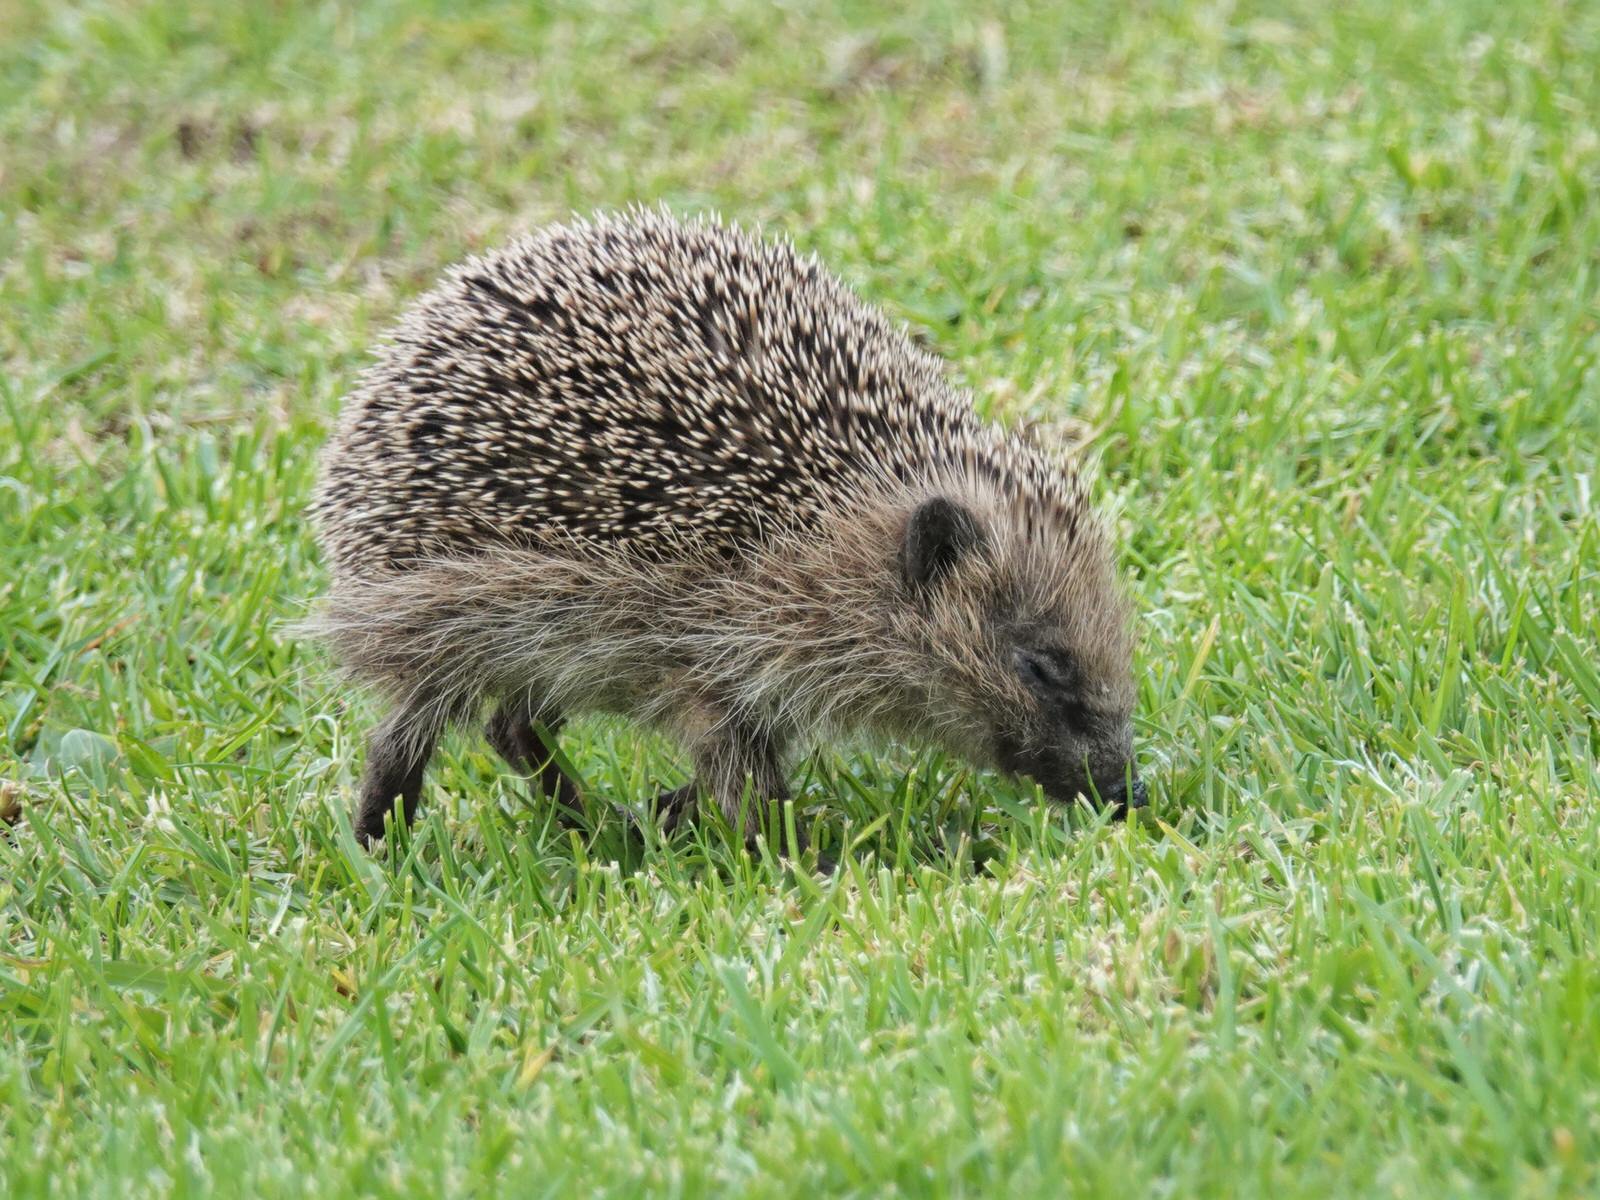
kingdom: Animalia
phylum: Chordata
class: Mammalia
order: Erinaceomorpha
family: Erinaceidae
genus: Erinaceus
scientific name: Erinaceus europaeus
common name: West european hedgehog
